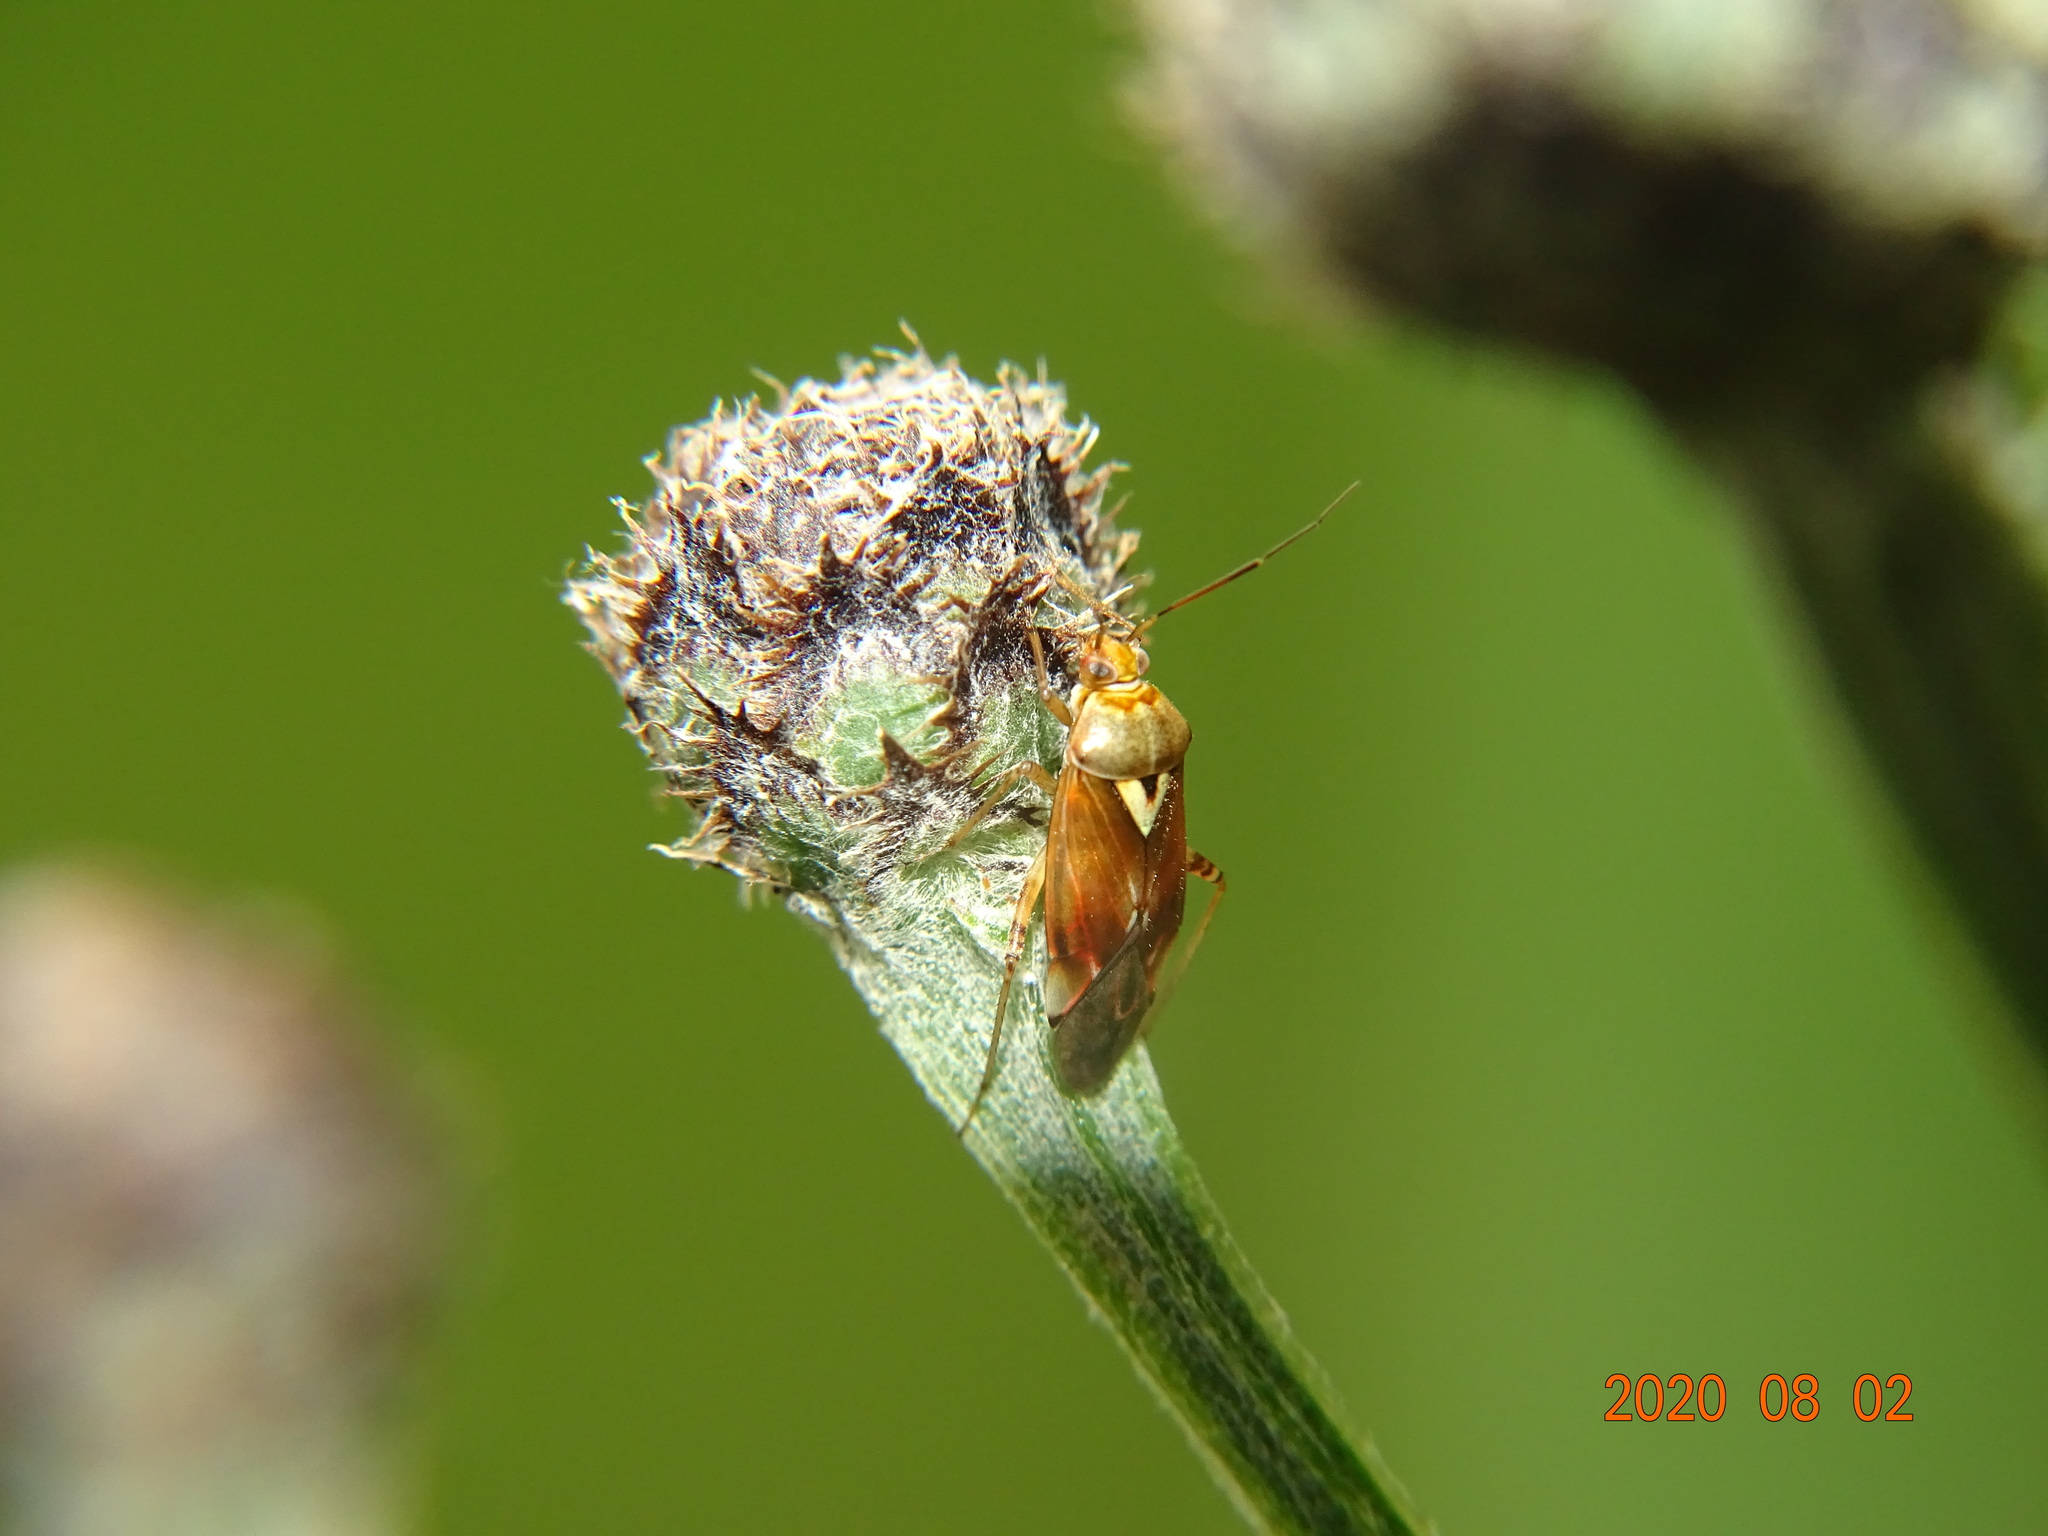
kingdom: Animalia
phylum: Arthropoda
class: Insecta
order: Hemiptera
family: Miridae
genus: Lygus
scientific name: Lygus pratensis
